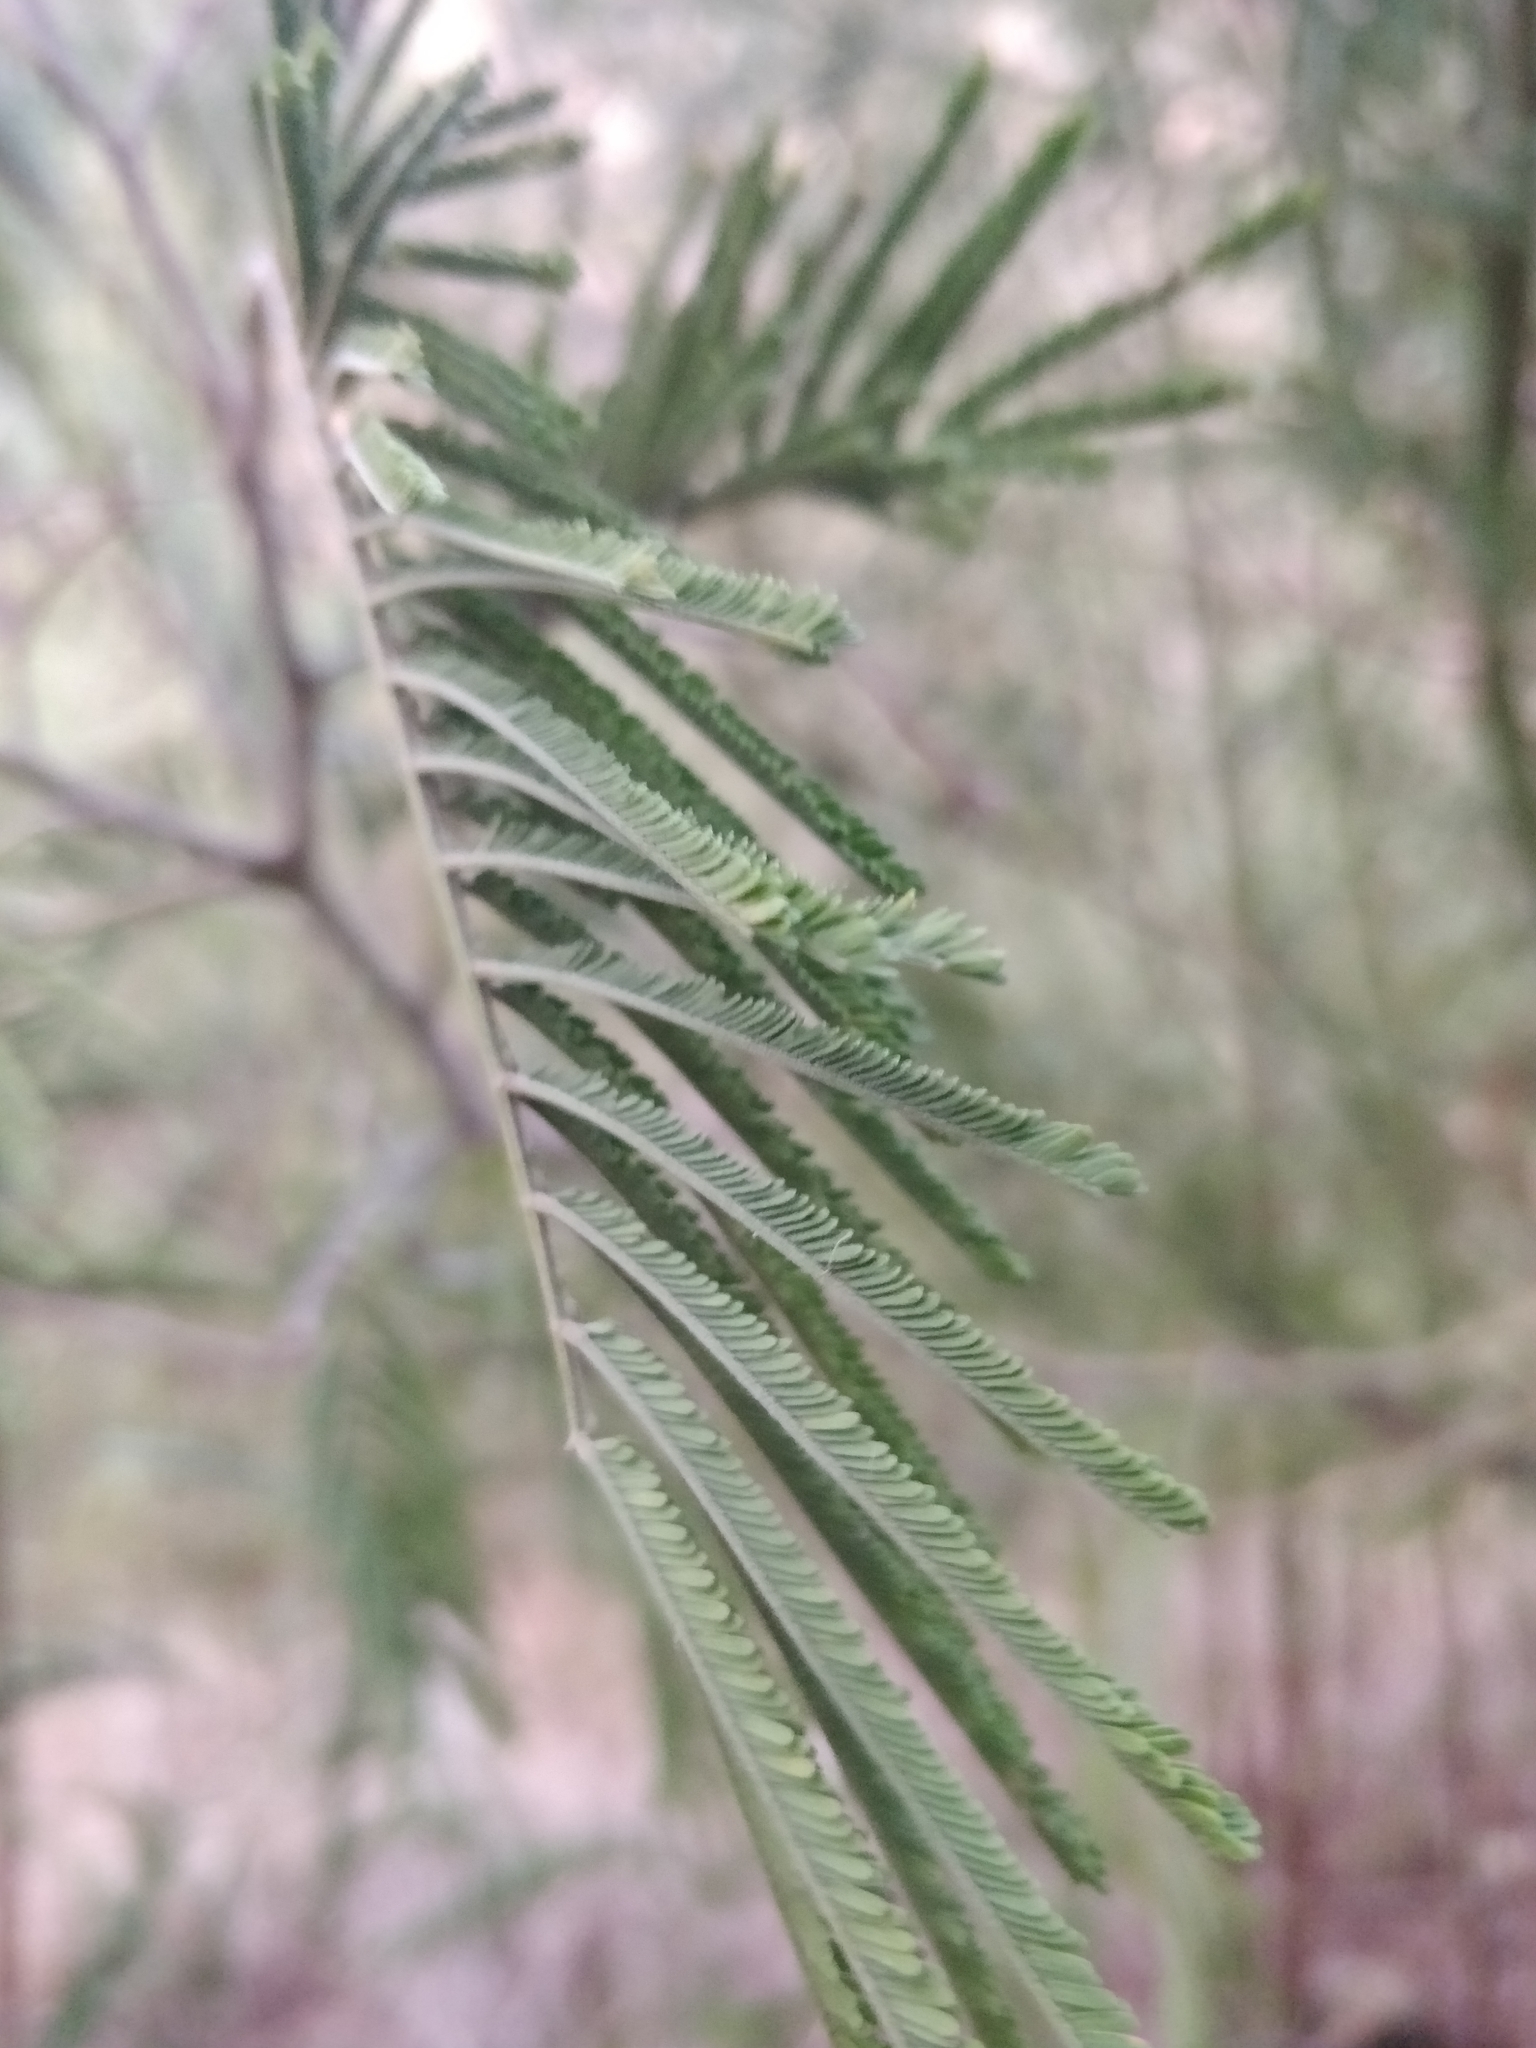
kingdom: Plantae
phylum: Tracheophyta
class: Magnoliopsida
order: Fabales
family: Fabaceae
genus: Acacia
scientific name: Acacia mearnsii
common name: Black wattle
